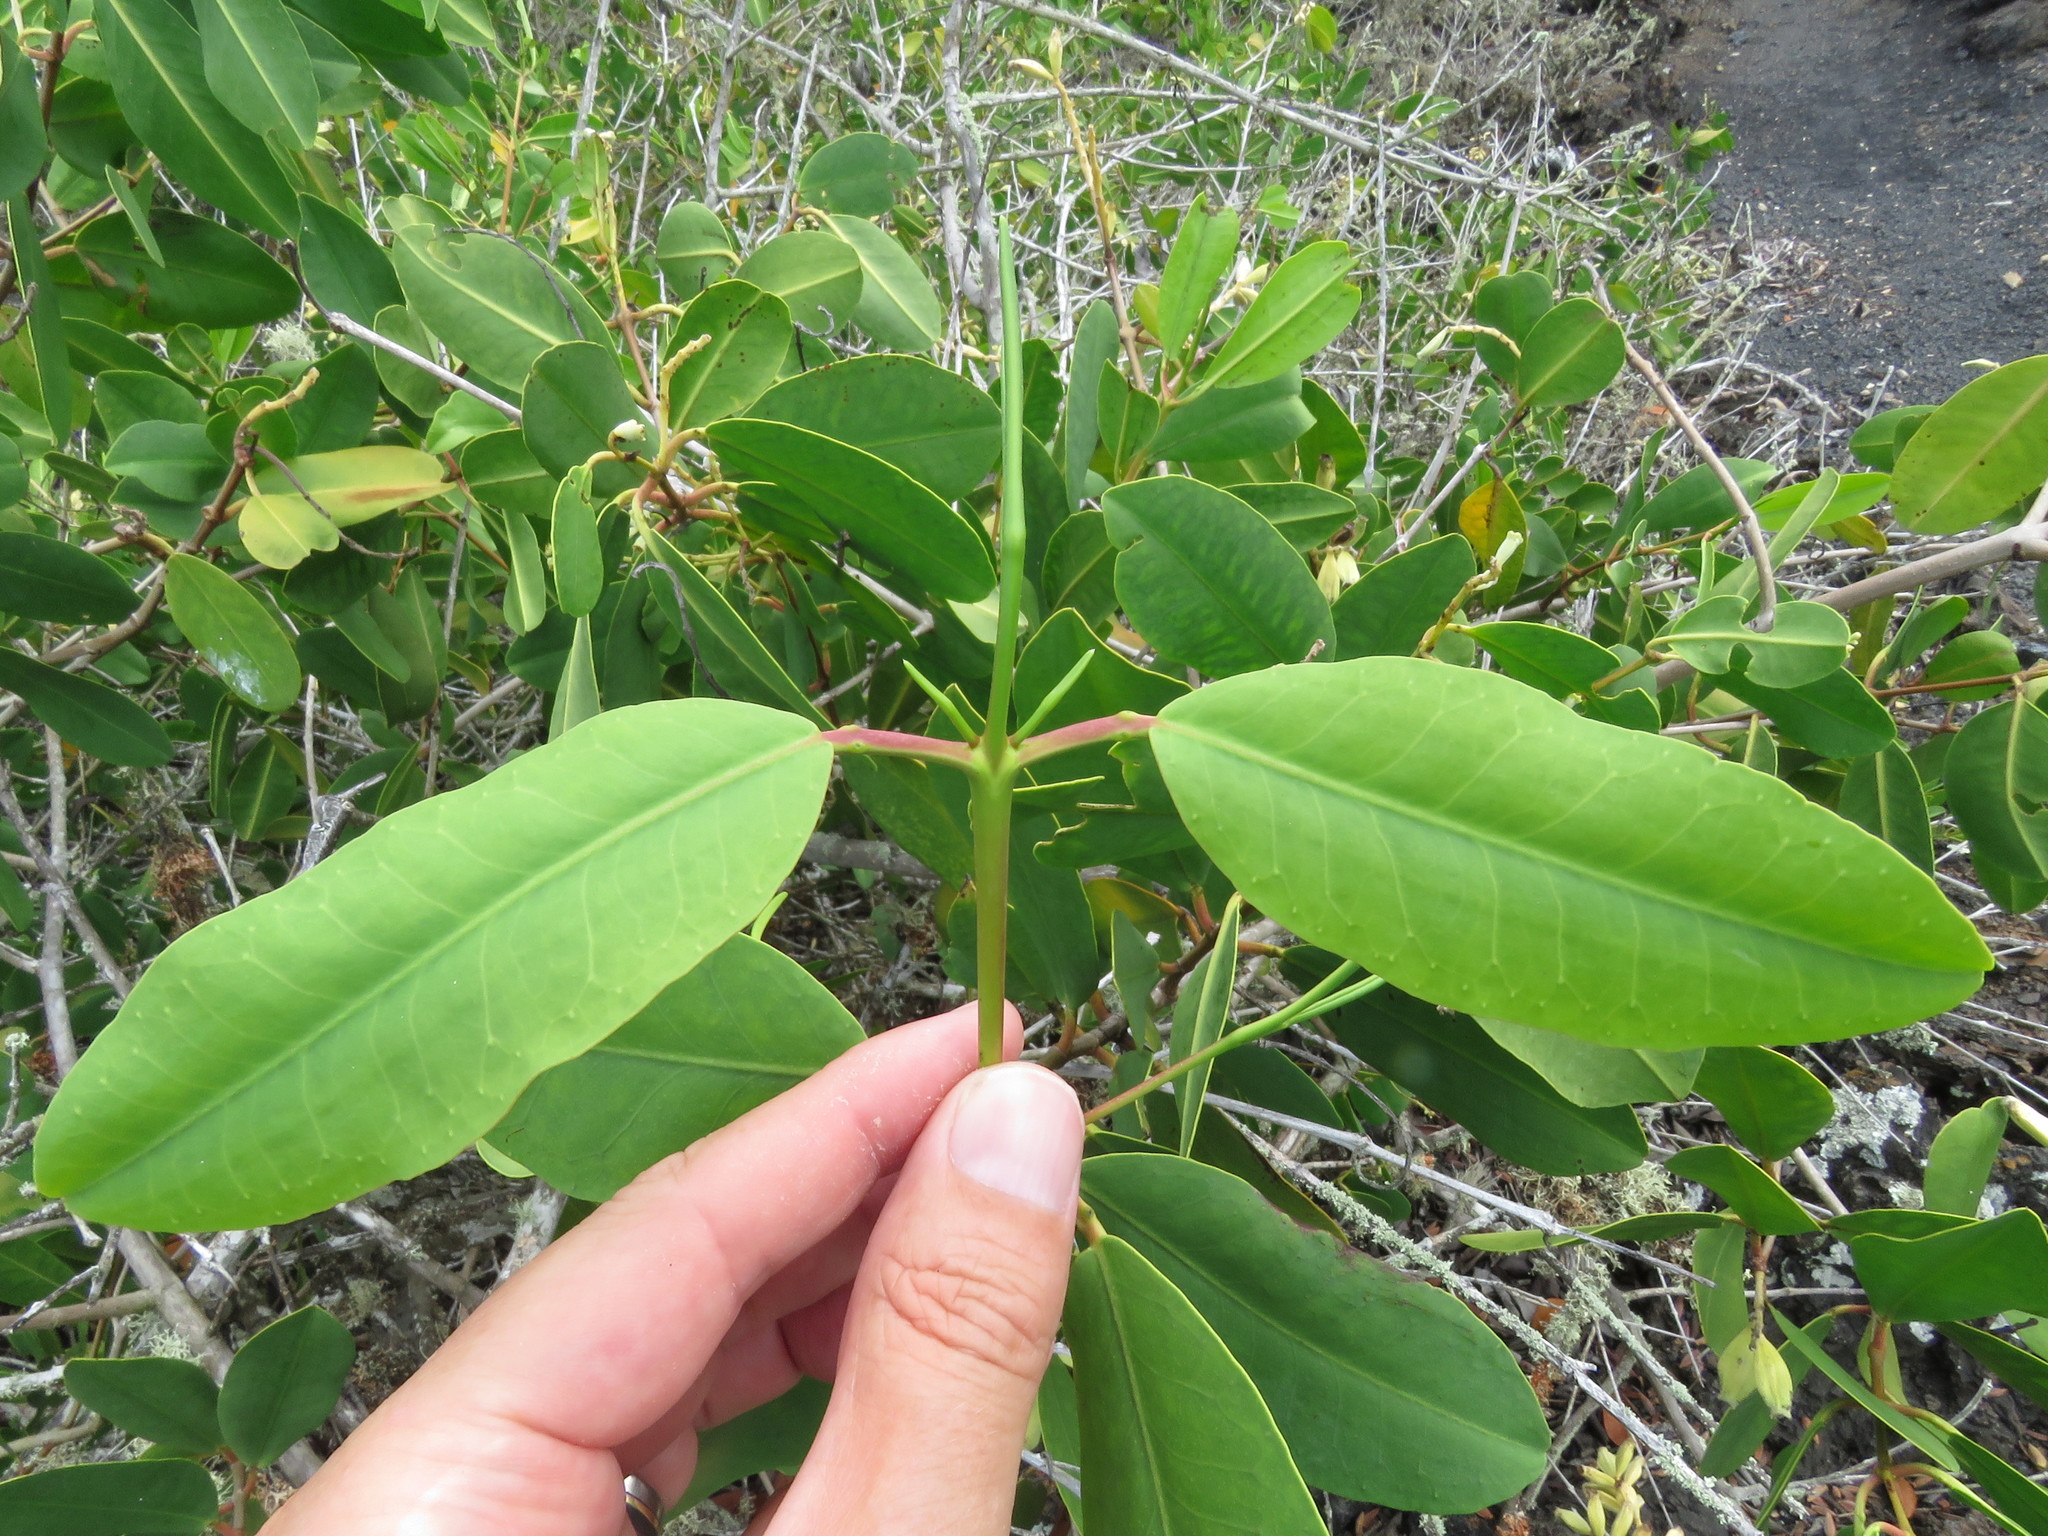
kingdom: Plantae
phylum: Tracheophyta
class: Magnoliopsida
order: Myrtales
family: Combretaceae
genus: Laguncularia
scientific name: Laguncularia racemosa
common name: White mangrove
